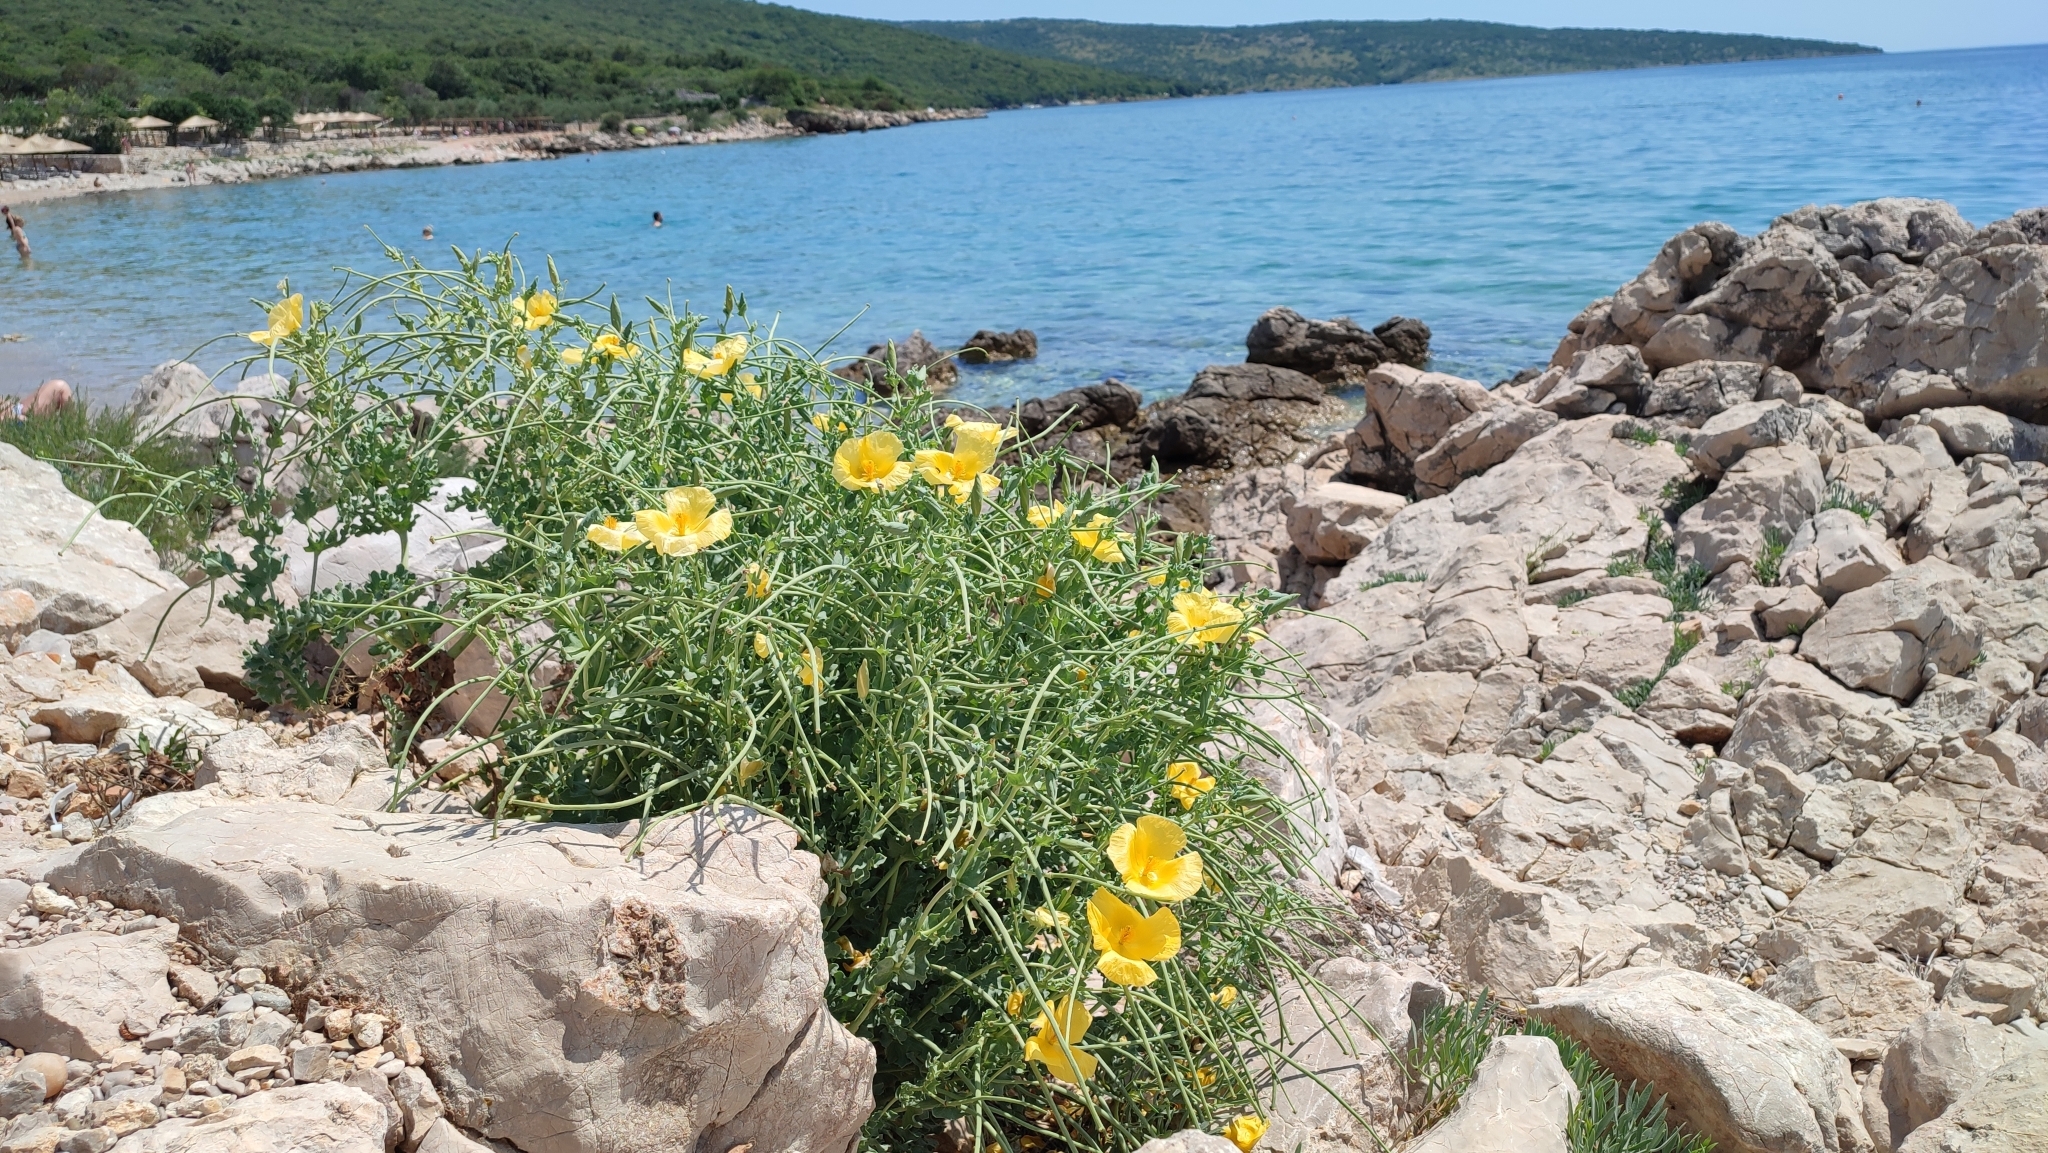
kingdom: Plantae
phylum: Tracheophyta
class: Magnoliopsida
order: Ranunculales
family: Papaveraceae
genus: Glaucium
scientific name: Glaucium flavum
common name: Yellow horned-poppy
